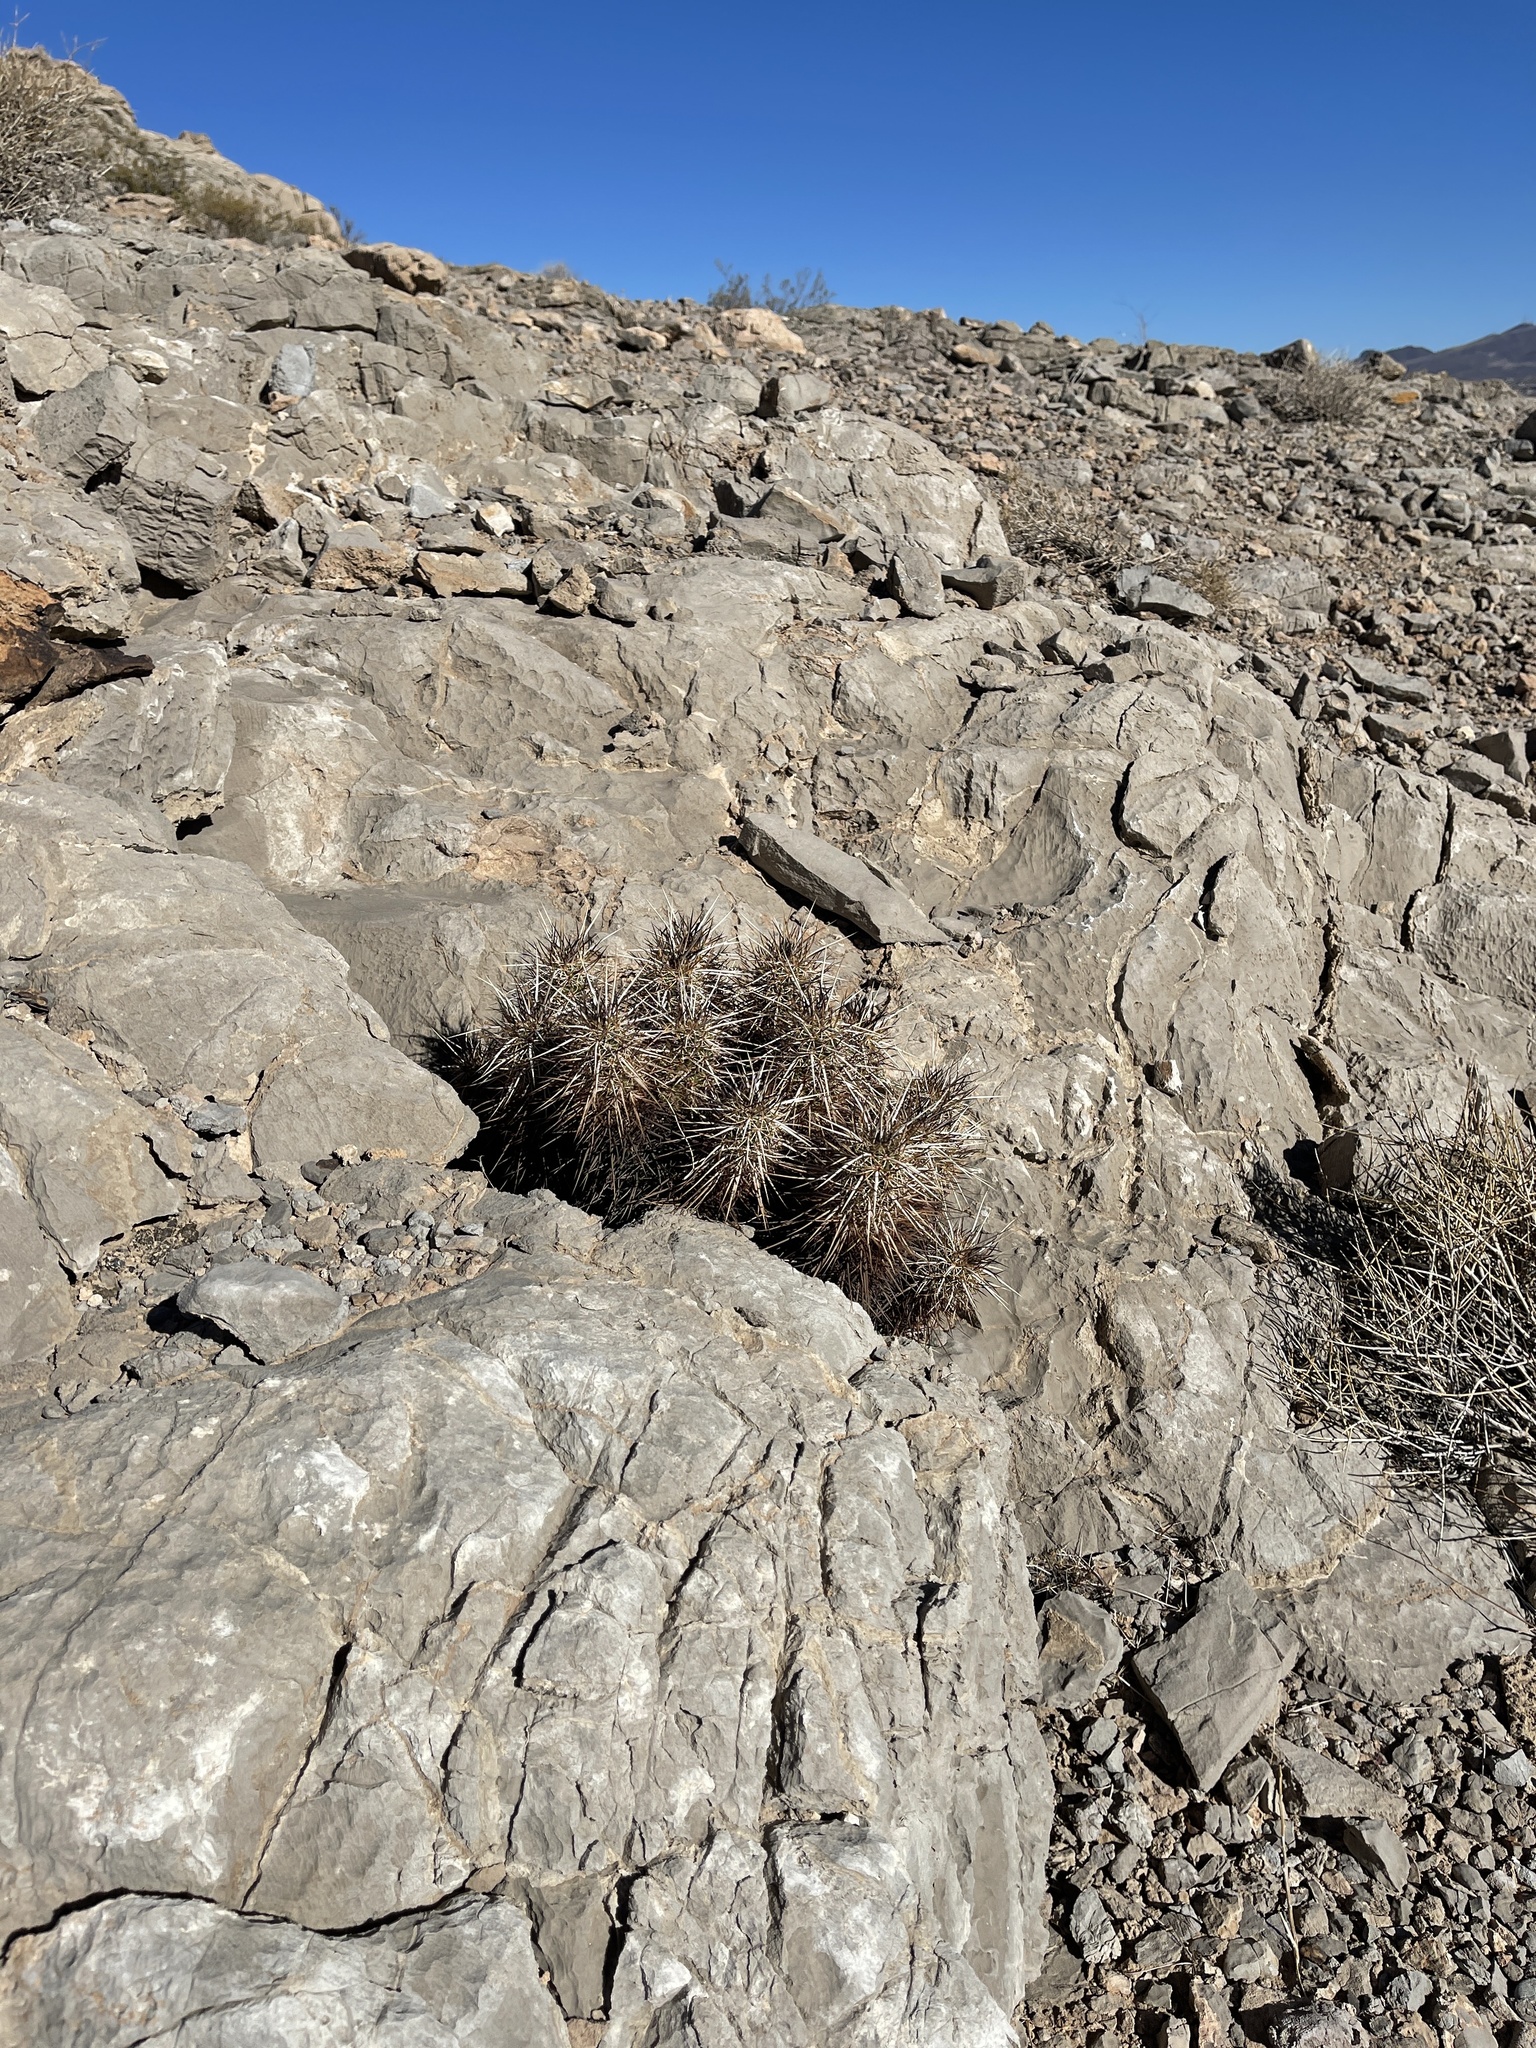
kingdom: Plantae
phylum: Tracheophyta
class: Magnoliopsida
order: Caryophyllales
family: Cactaceae
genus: Echinocereus
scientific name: Echinocereus engelmannii
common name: Engelmann's hedgehog cactus
